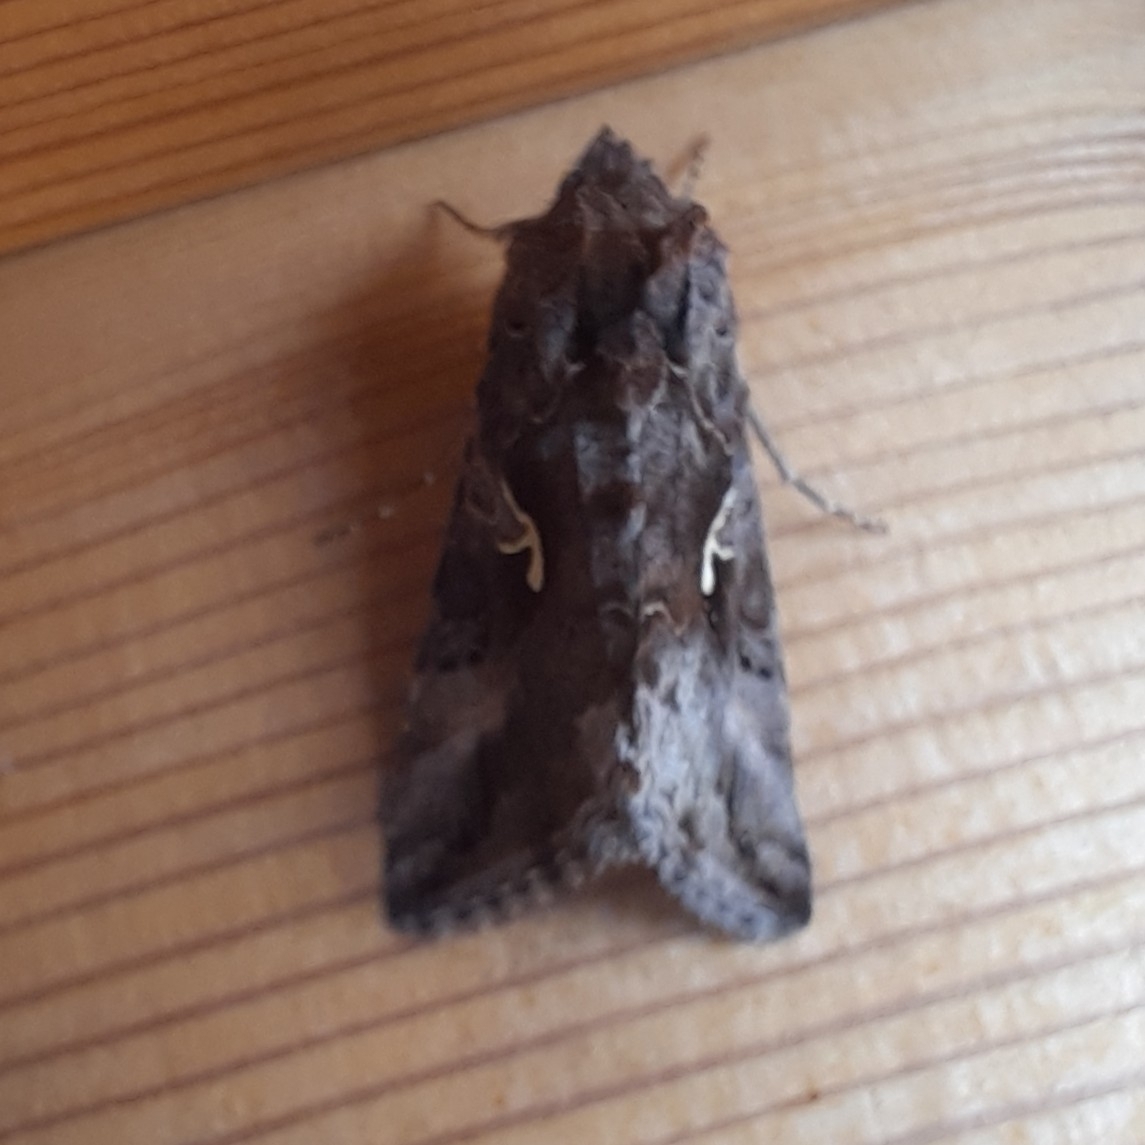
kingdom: Animalia
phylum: Arthropoda
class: Insecta
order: Lepidoptera
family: Noctuidae
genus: Autographa
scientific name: Autographa gamma
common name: Silver y
